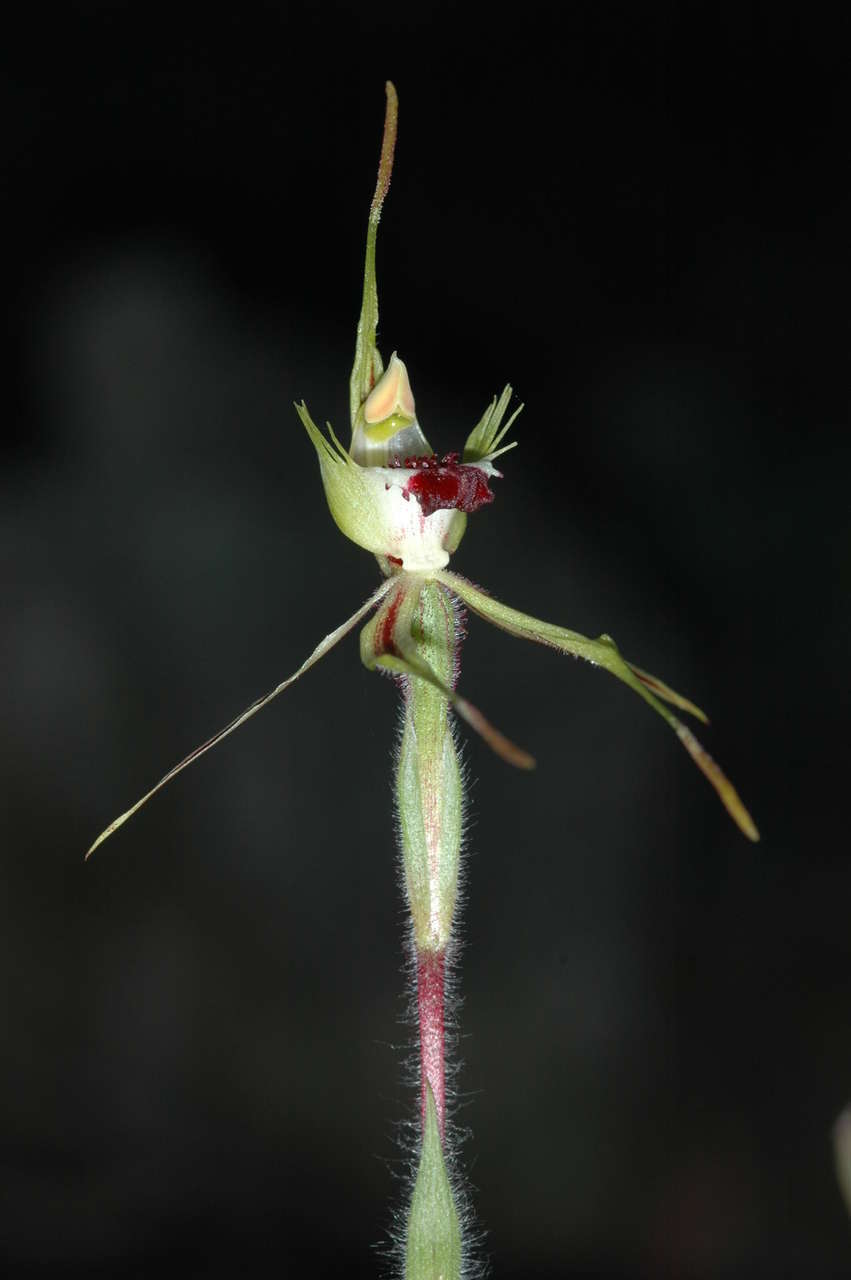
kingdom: Plantae
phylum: Tracheophyta
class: Liliopsida
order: Asparagales
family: Orchidaceae
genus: Caladenia
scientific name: Caladenia parva
